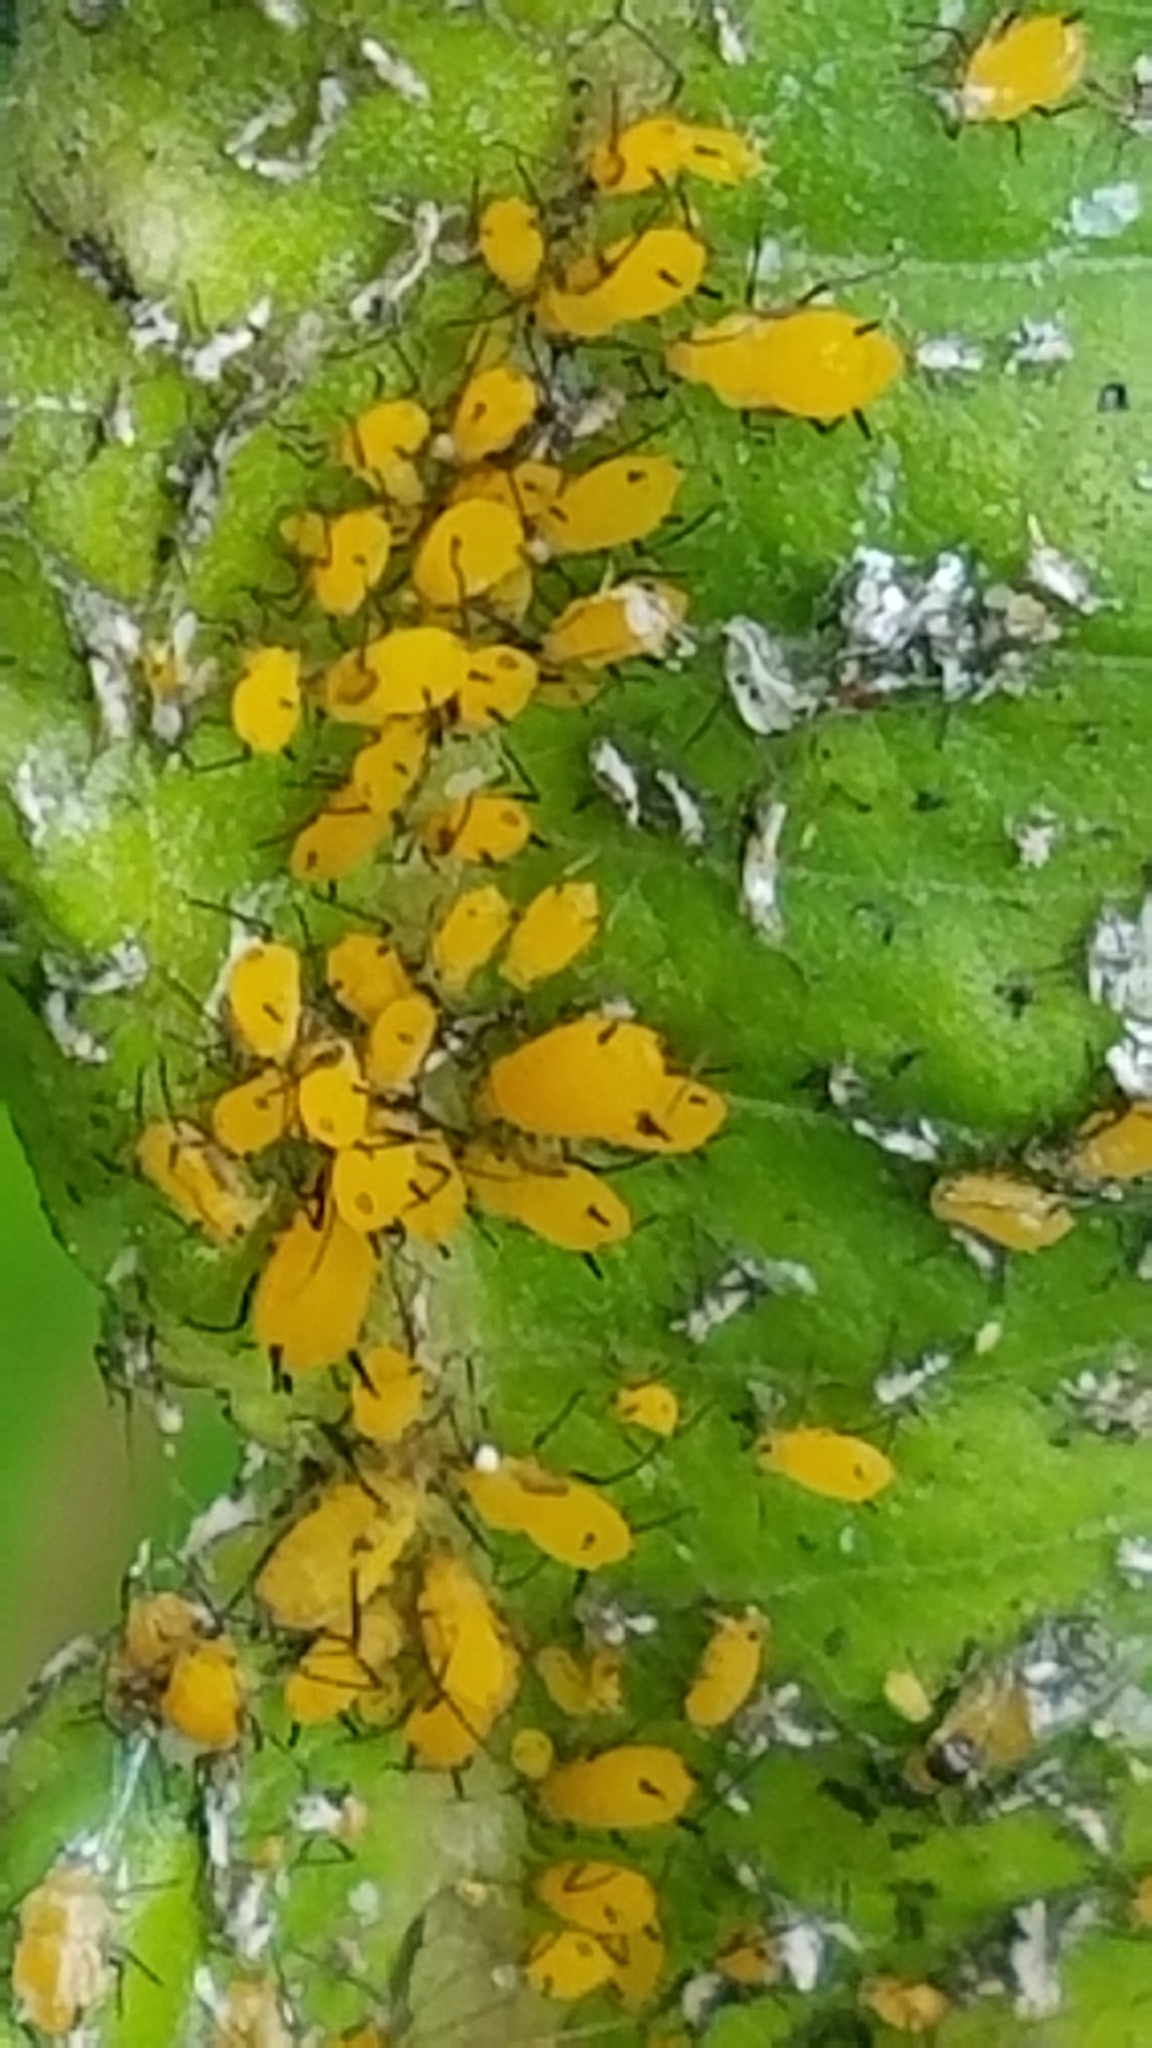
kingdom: Animalia
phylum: Arthropoda
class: Insecta
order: Hemiptera
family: Aphididae
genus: Aphis
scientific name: Aphis nerii
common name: Oleander aphid
